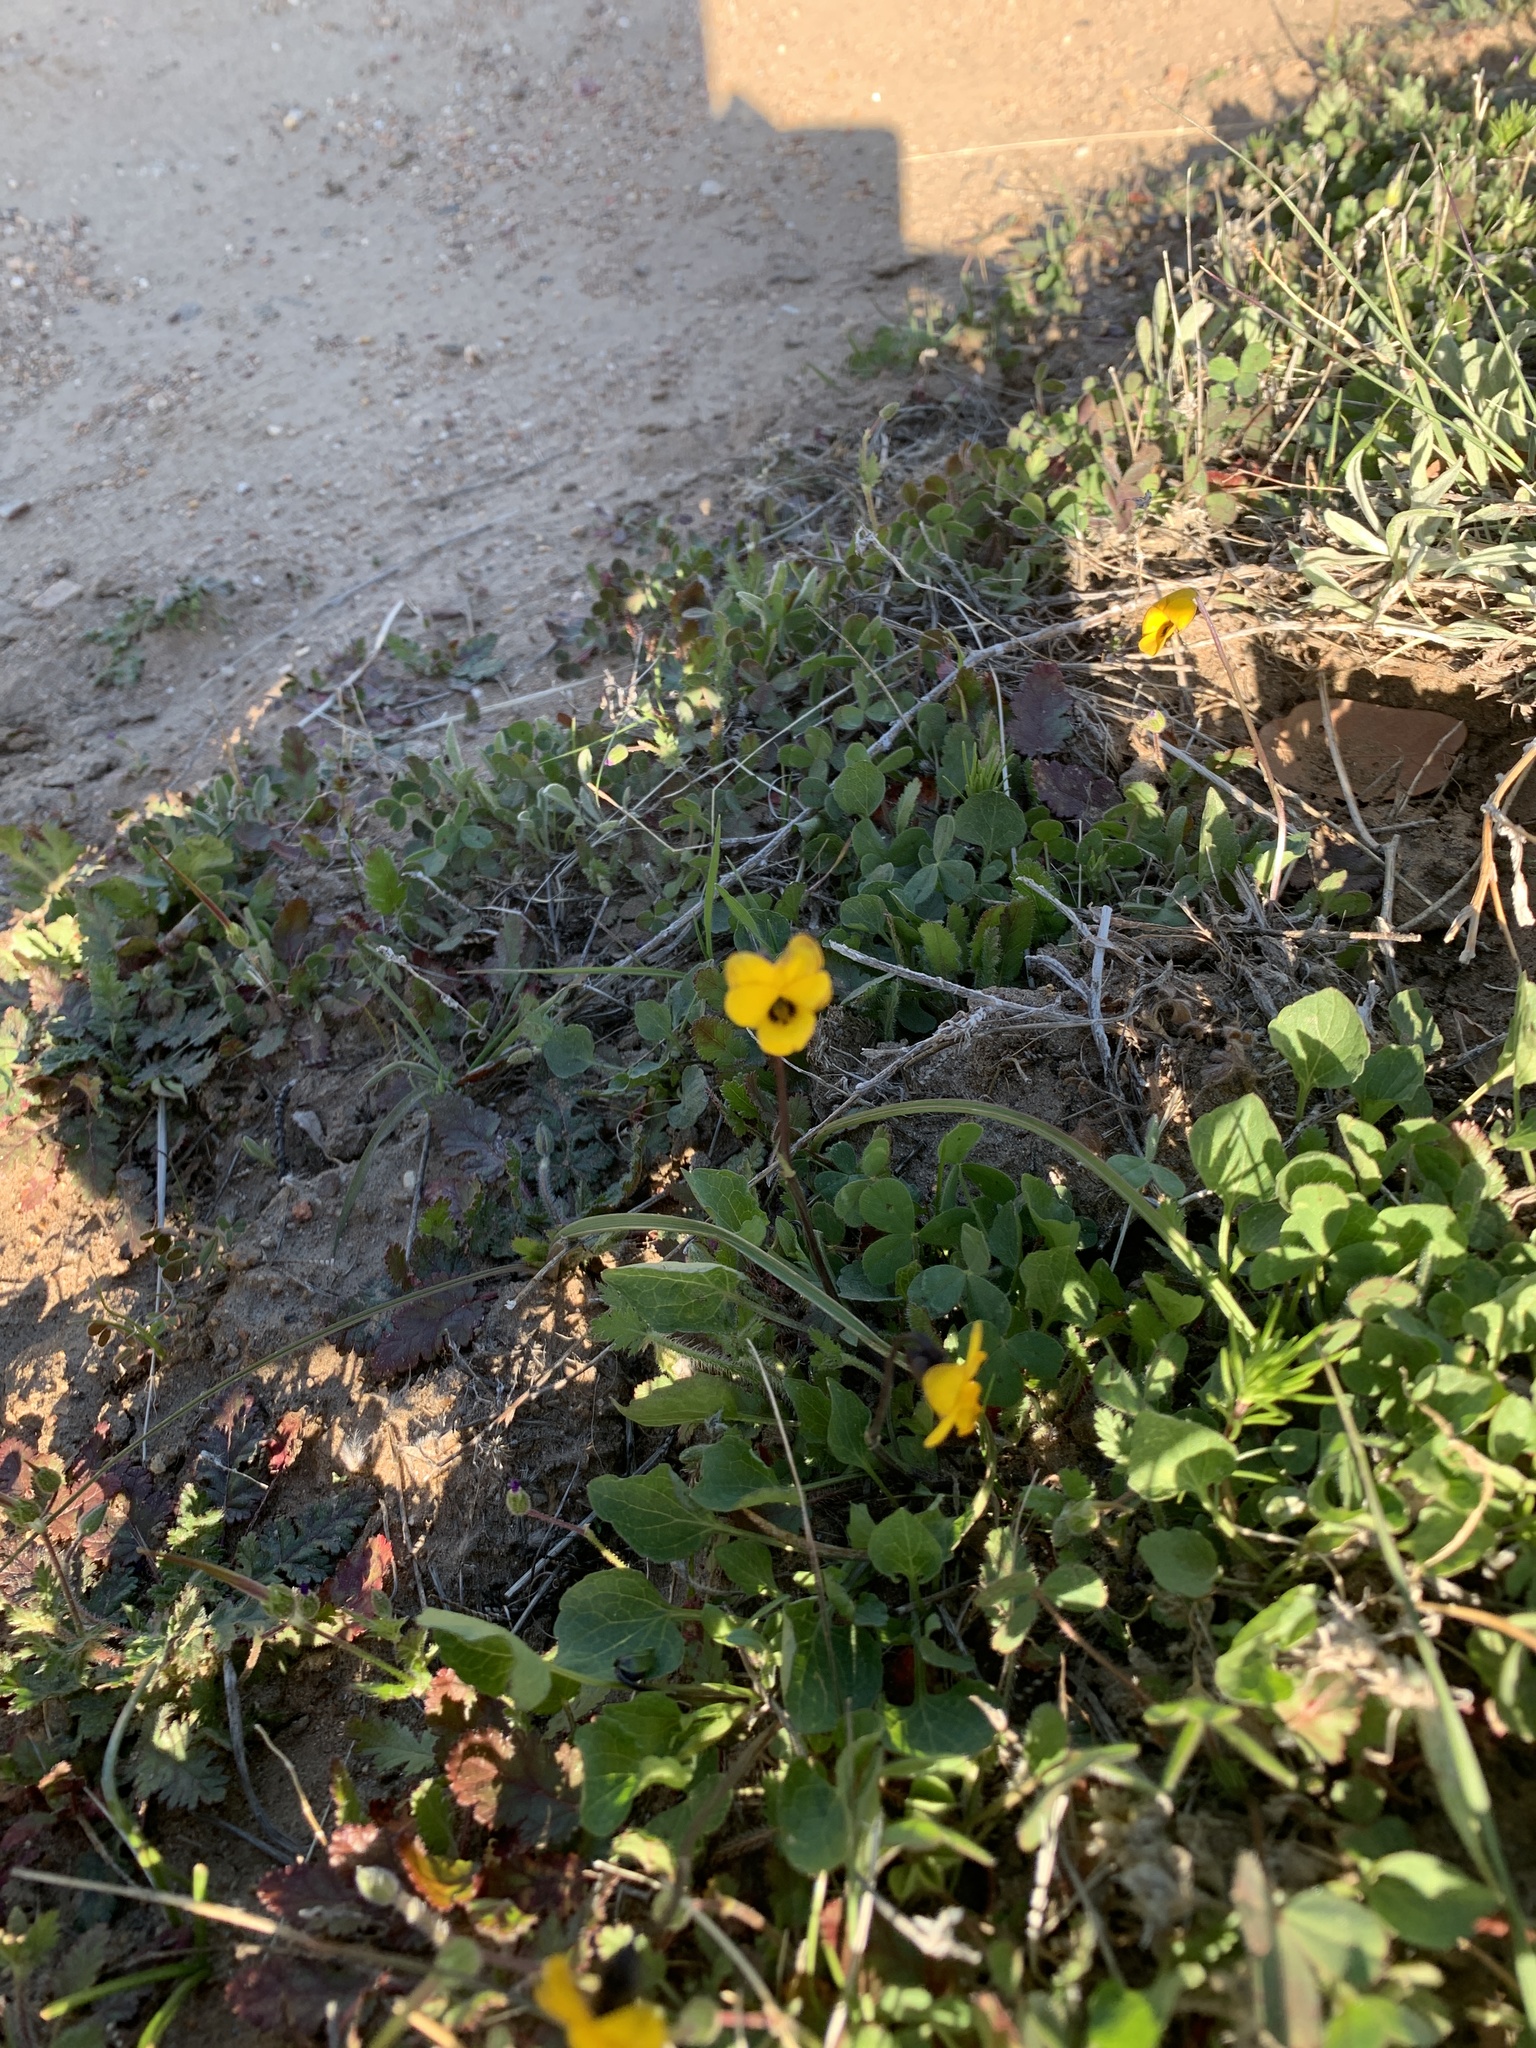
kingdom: Plantae
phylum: Tracheophyta
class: Magnoliopsida
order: Malpighiales
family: Violaceae
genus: Viola
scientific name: Viola pedunculata
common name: California golden violet
